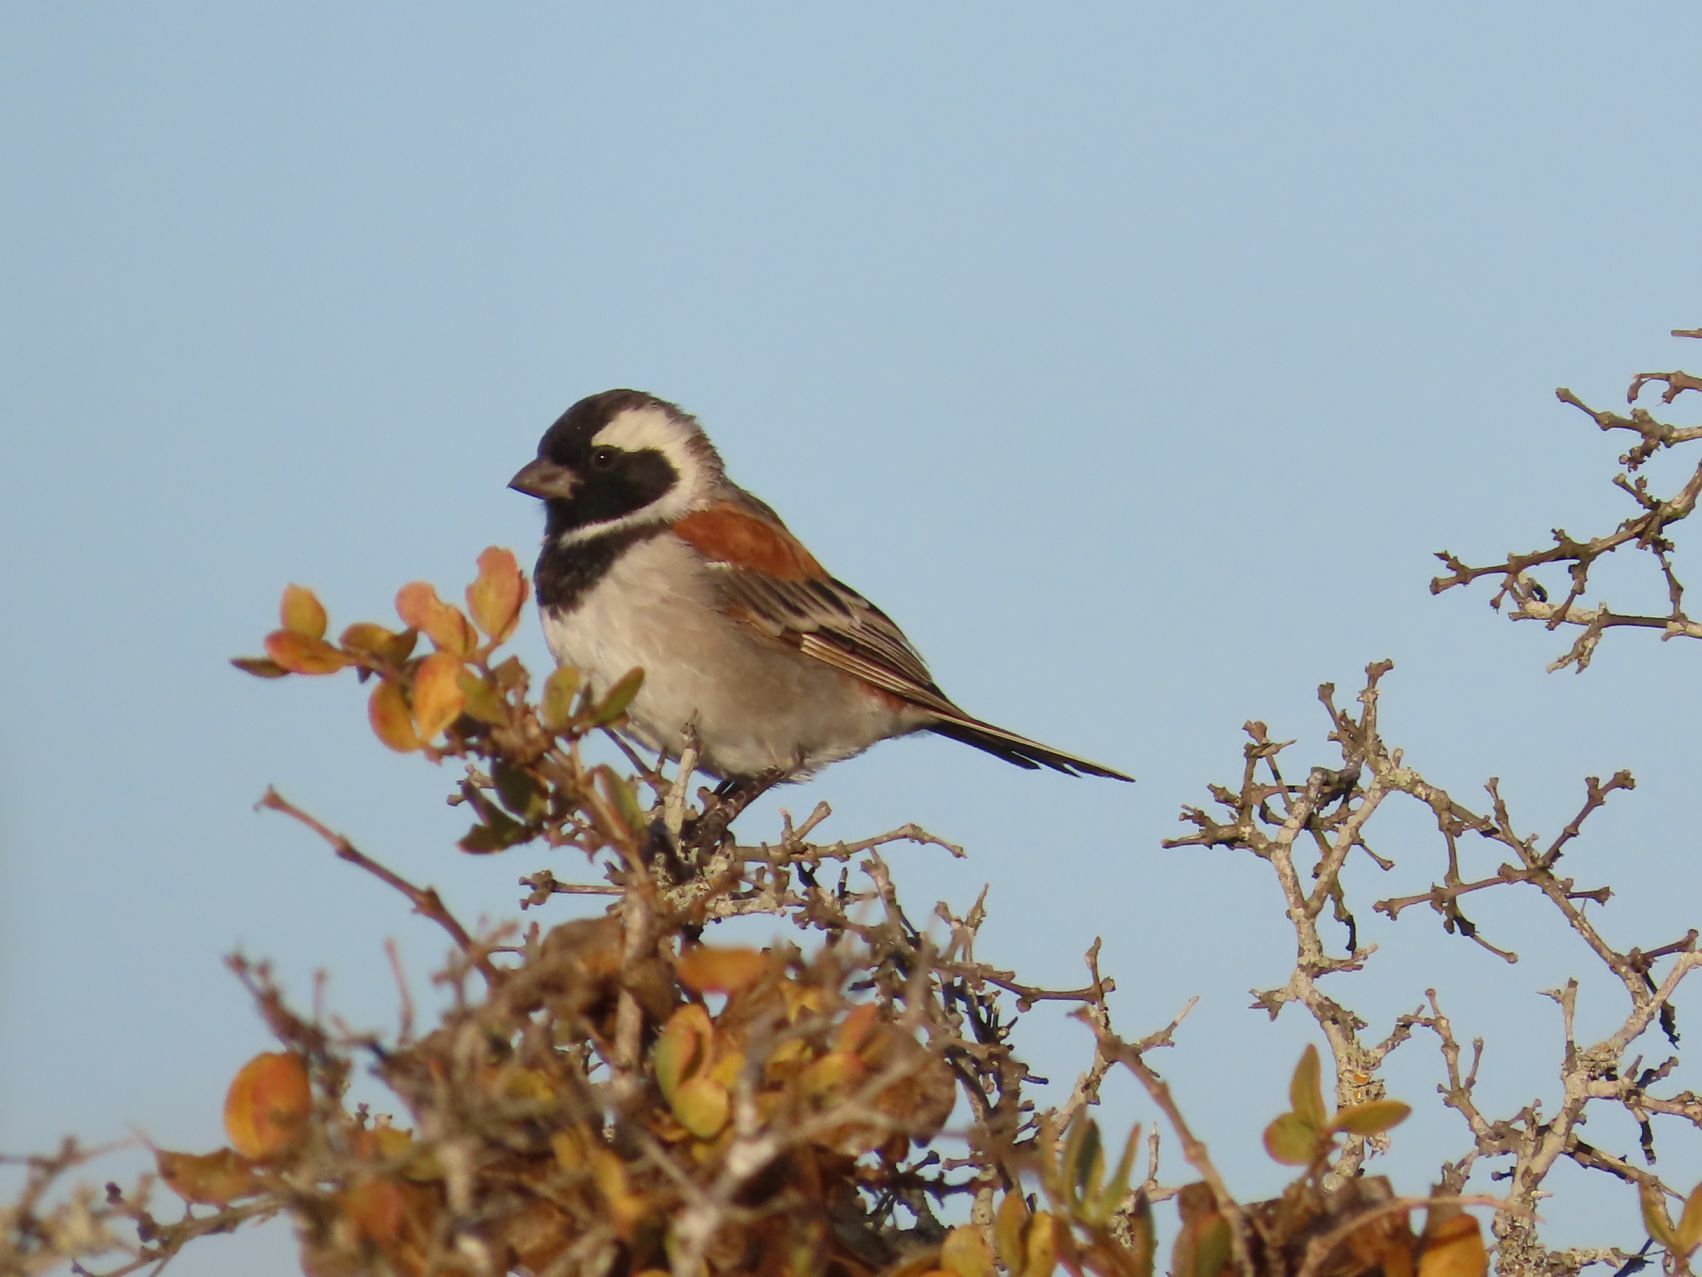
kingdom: Animalia
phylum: Chordata
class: Aves
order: Passeriformes
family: Passeridae
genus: Passer
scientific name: Passer melanurus
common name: Cape sparrow
